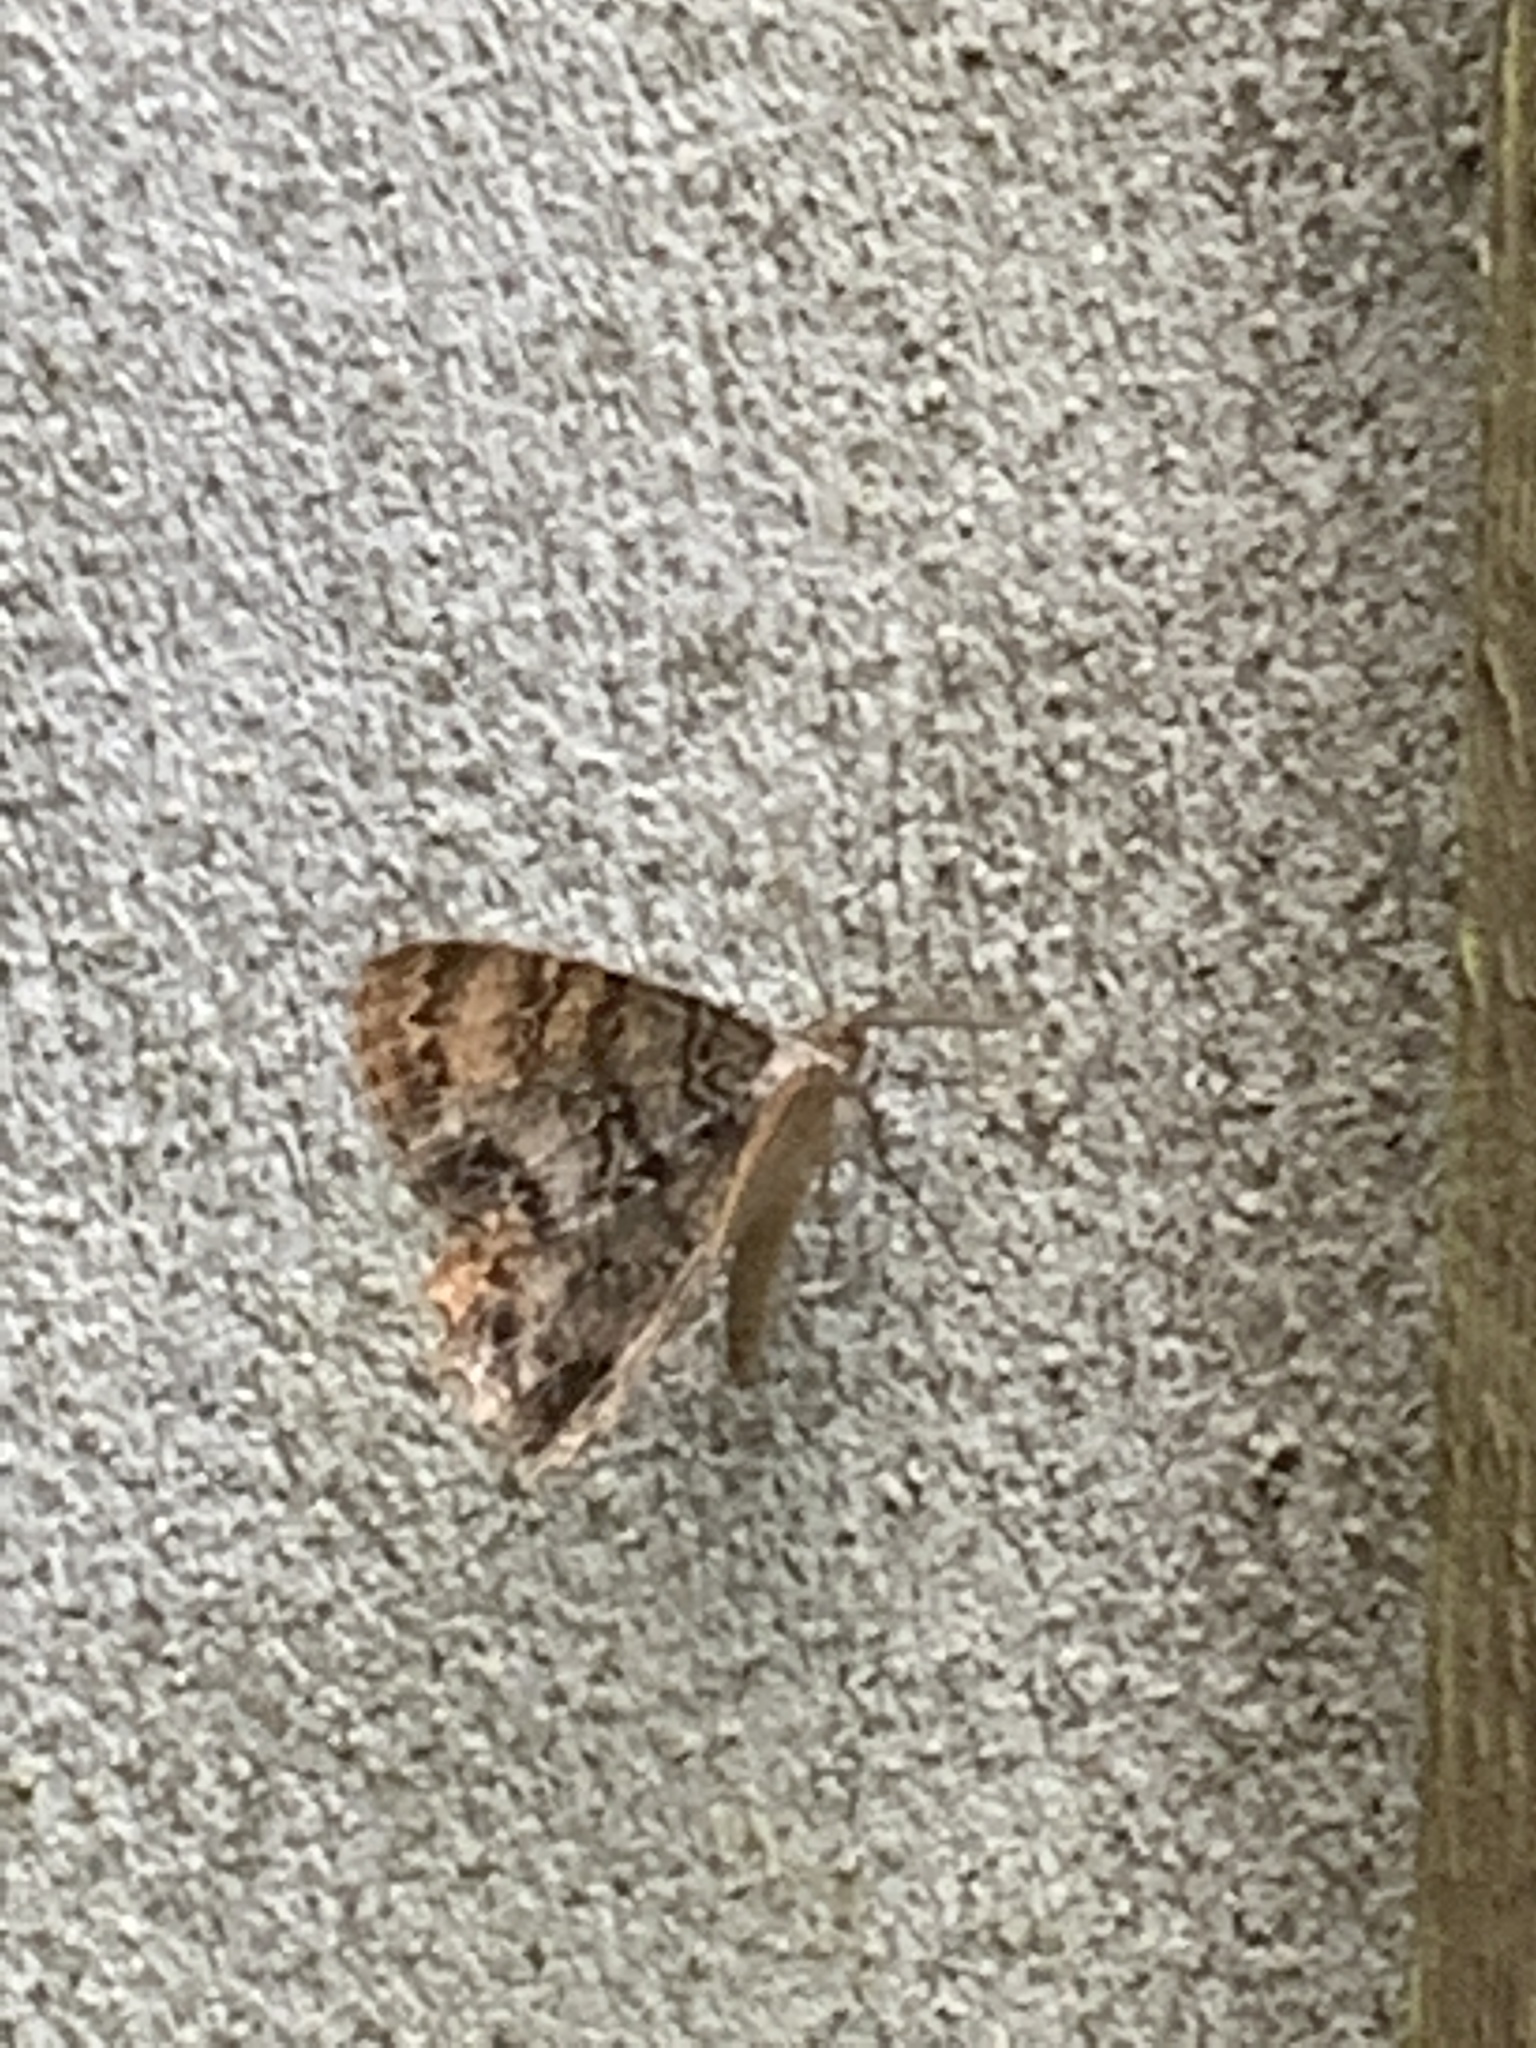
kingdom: Animalia
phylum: Arthropoda
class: Insecta
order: Lepidoptera
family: Geometridae
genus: Epimecis
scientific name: Epimecis hortaria
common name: Tulip-tree beauty
